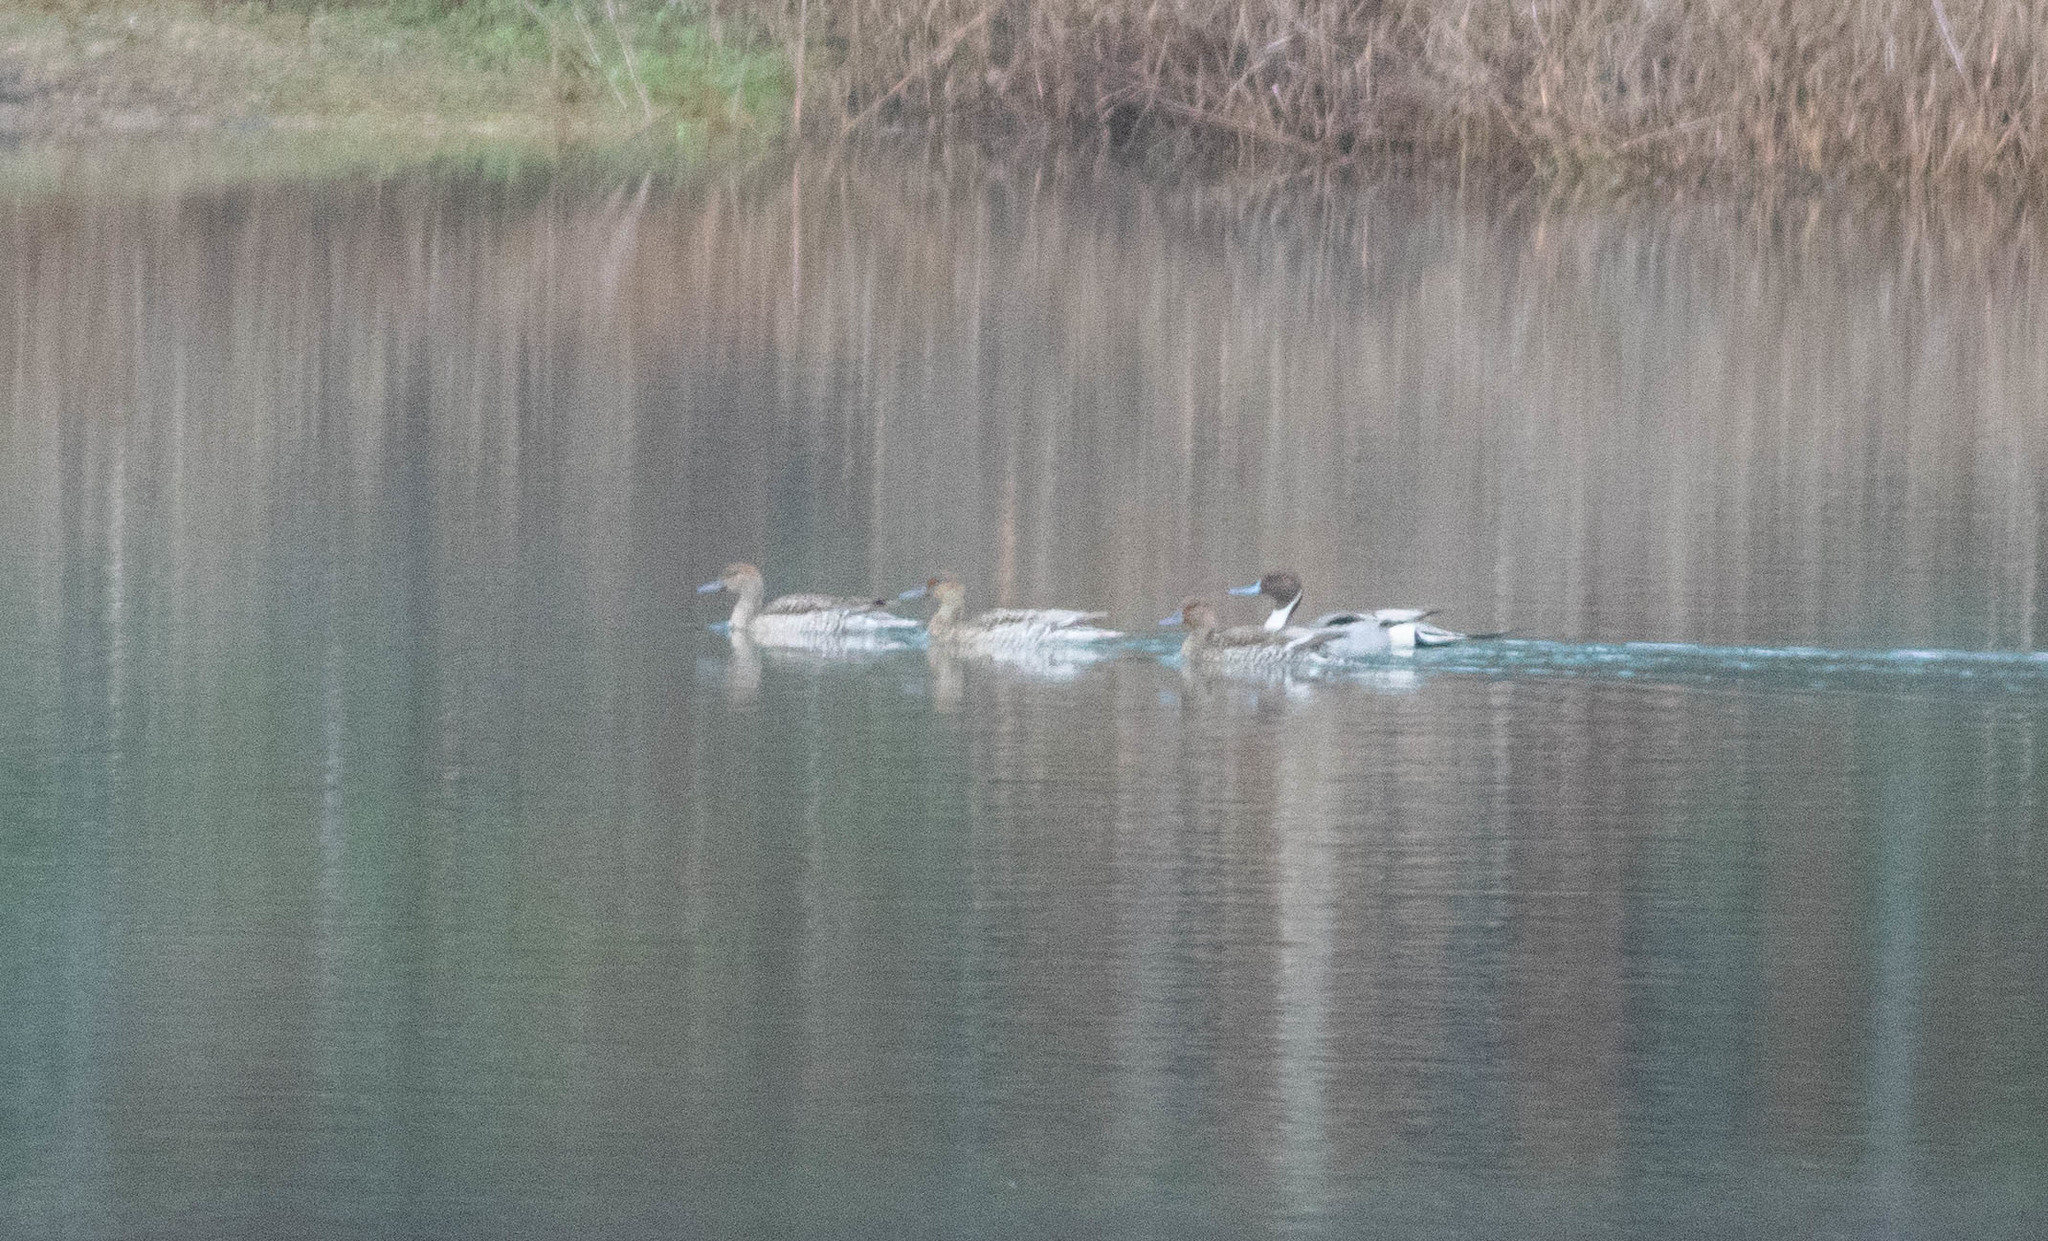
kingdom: Animalia
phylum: Chordata
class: Aves
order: Anseriformes
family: Anatidae
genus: Anas
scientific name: Anas acuta
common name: Northern pintail
